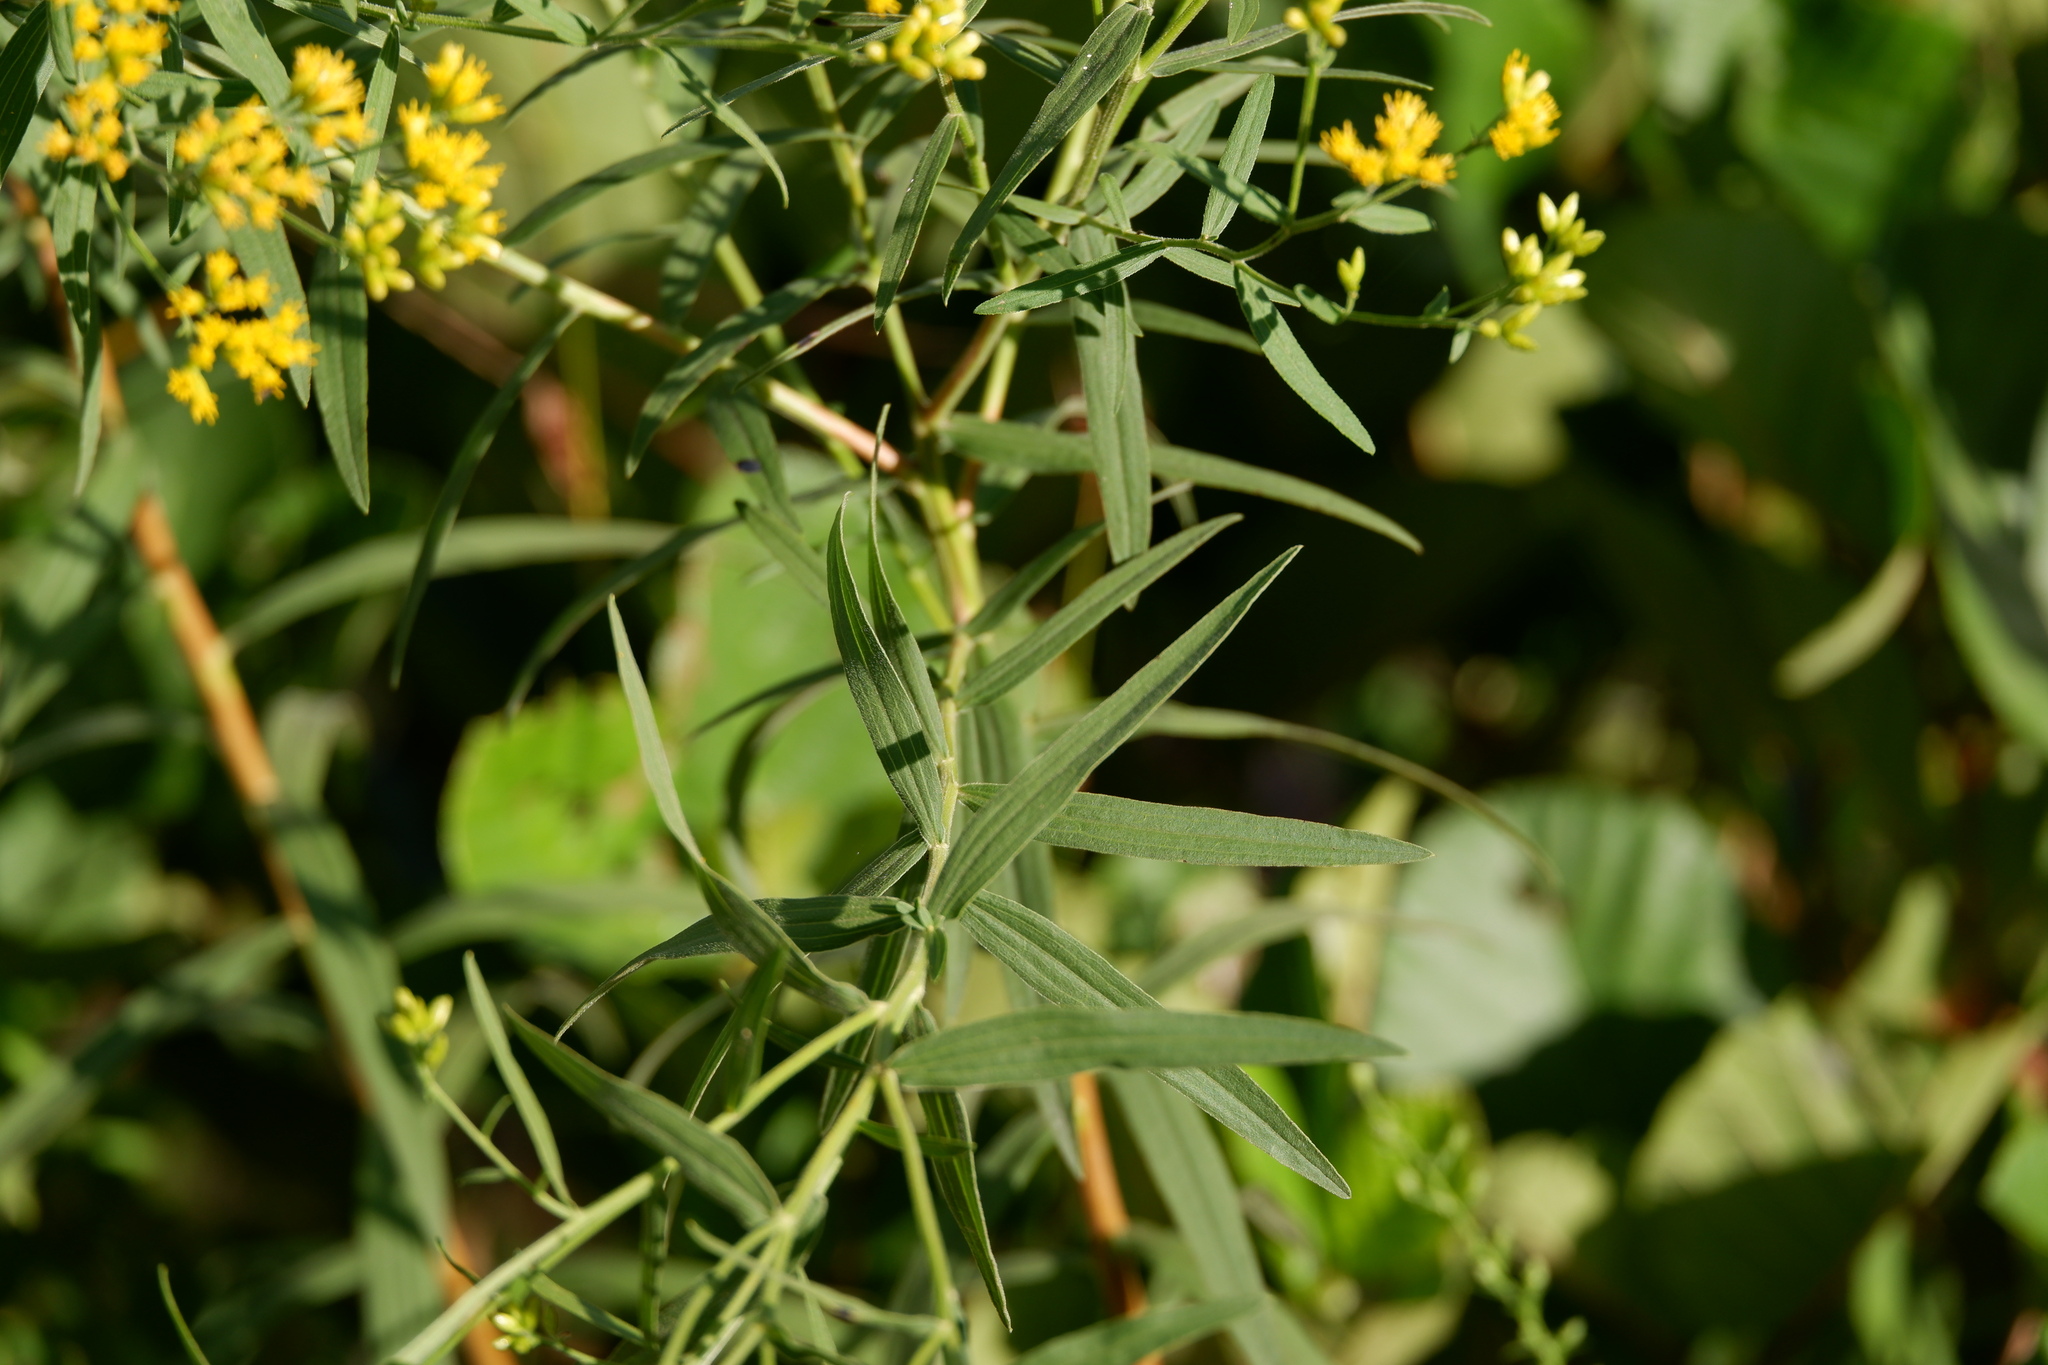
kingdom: Plantae
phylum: Tracheophyta
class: Magnoliopsida
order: Asterales
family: Asteraceae
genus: Euthamia
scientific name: Euthamia graminifolia
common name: Common goldentop
